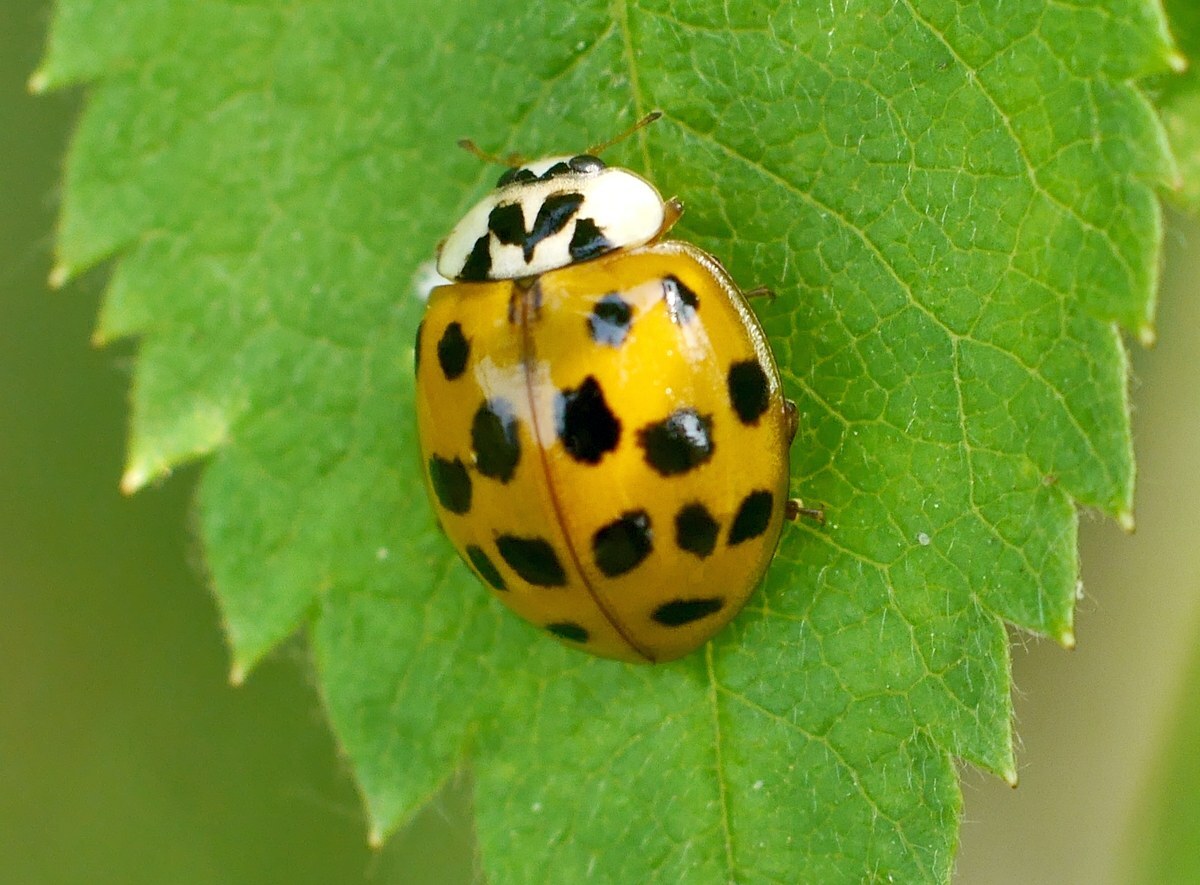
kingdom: Animalia
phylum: Arthropoda
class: Insecta
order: Coleoptera
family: Coccinellidae
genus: Harmonia
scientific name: Harmonia axyridis
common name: Harlequin ladybird
